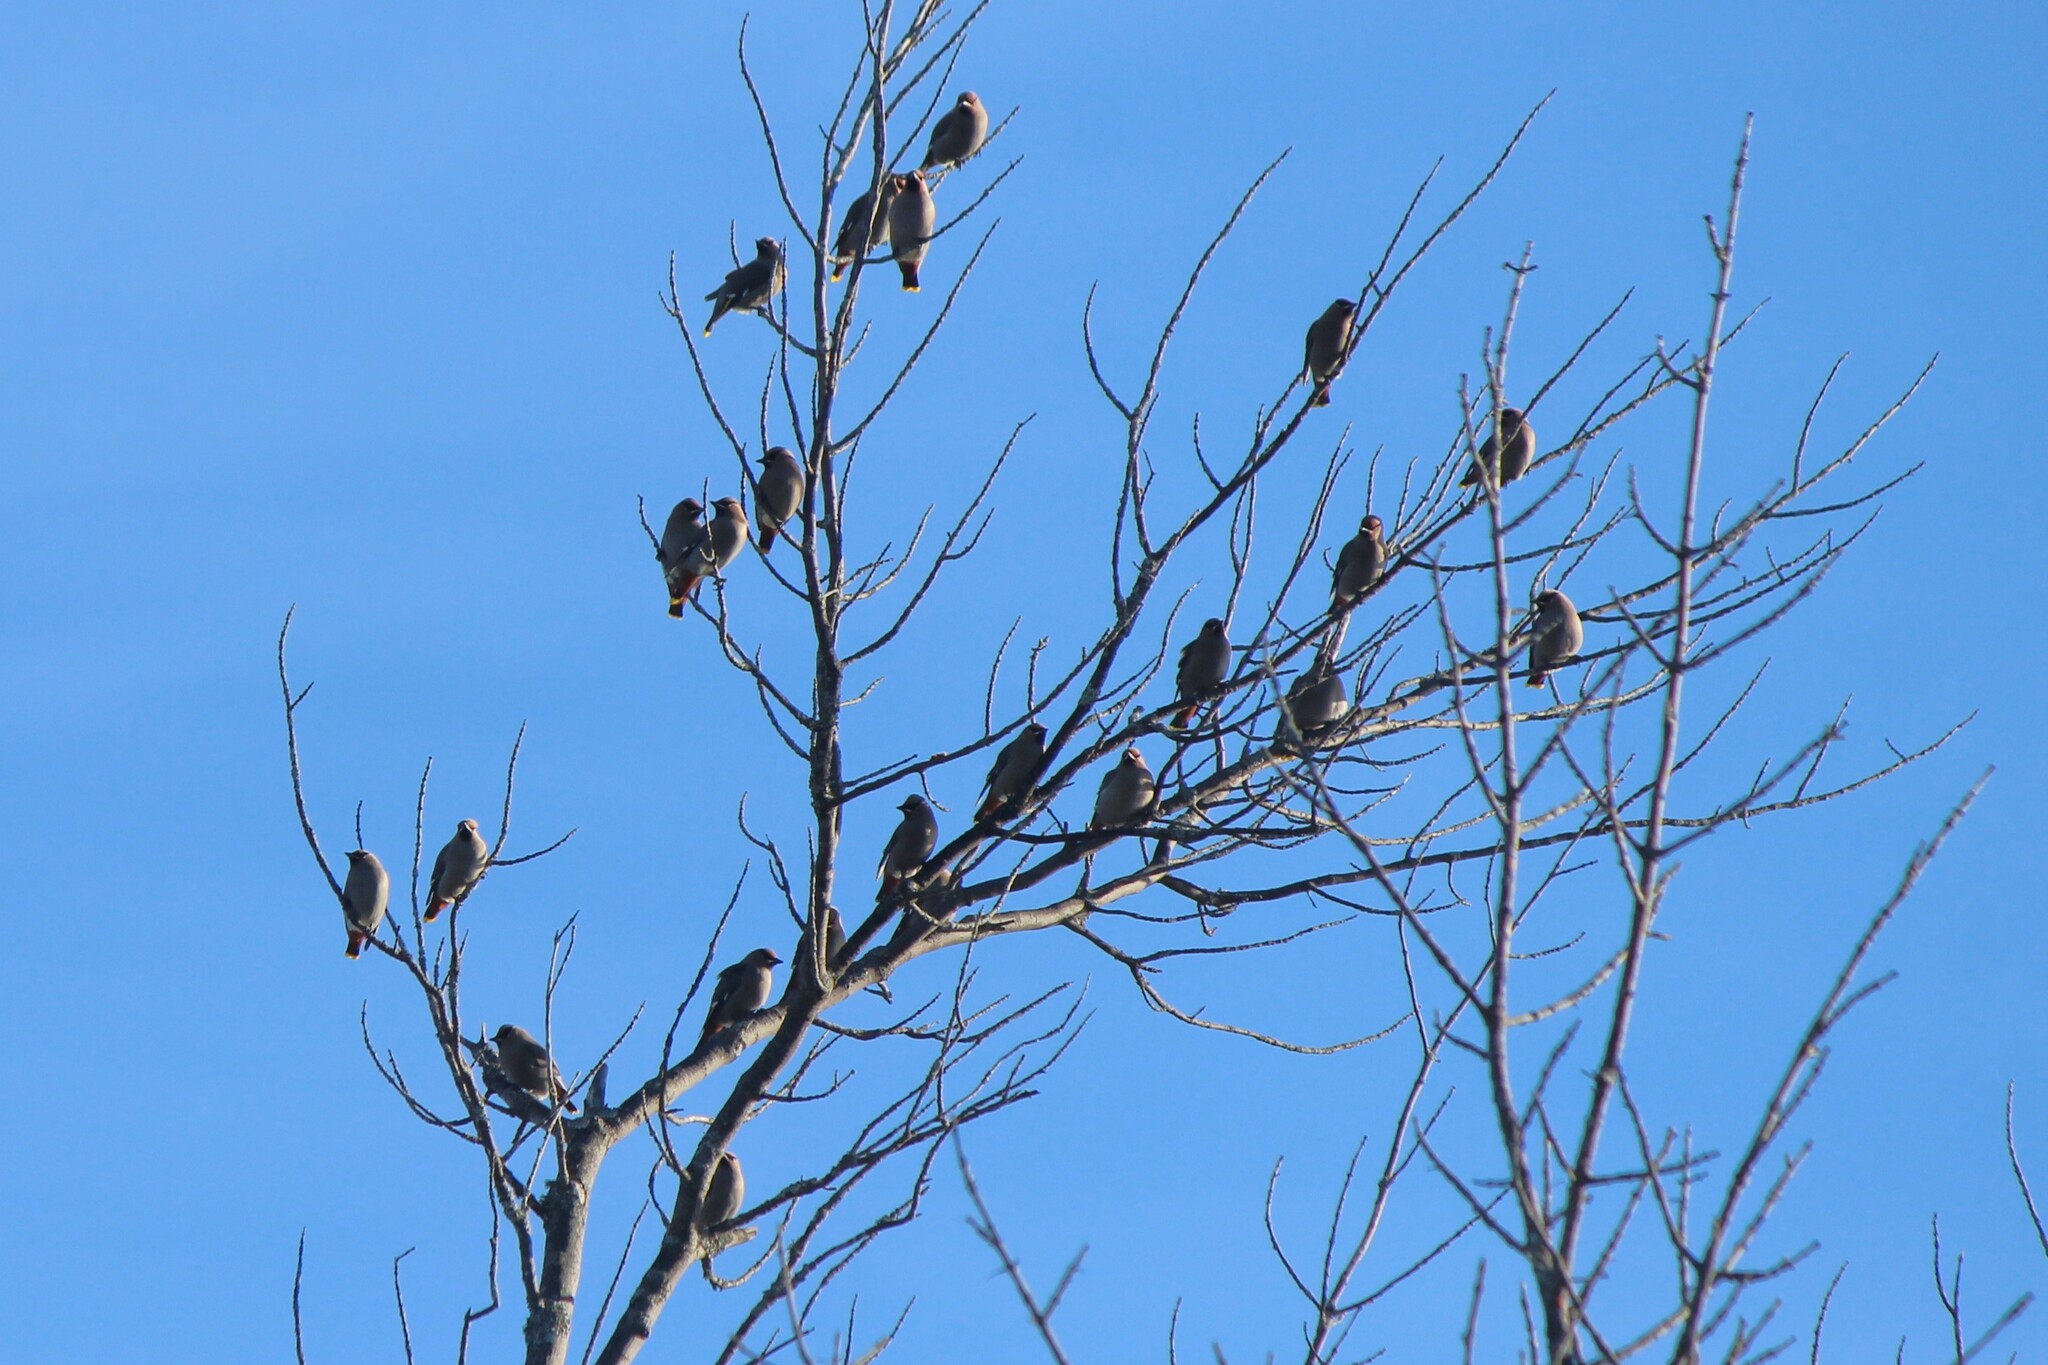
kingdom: Animalia
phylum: Chordata
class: Aves
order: Passeriformes
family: Bombycillidae
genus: Bombycilla
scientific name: Bombycilla garrulus
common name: Bohemian waxwing
